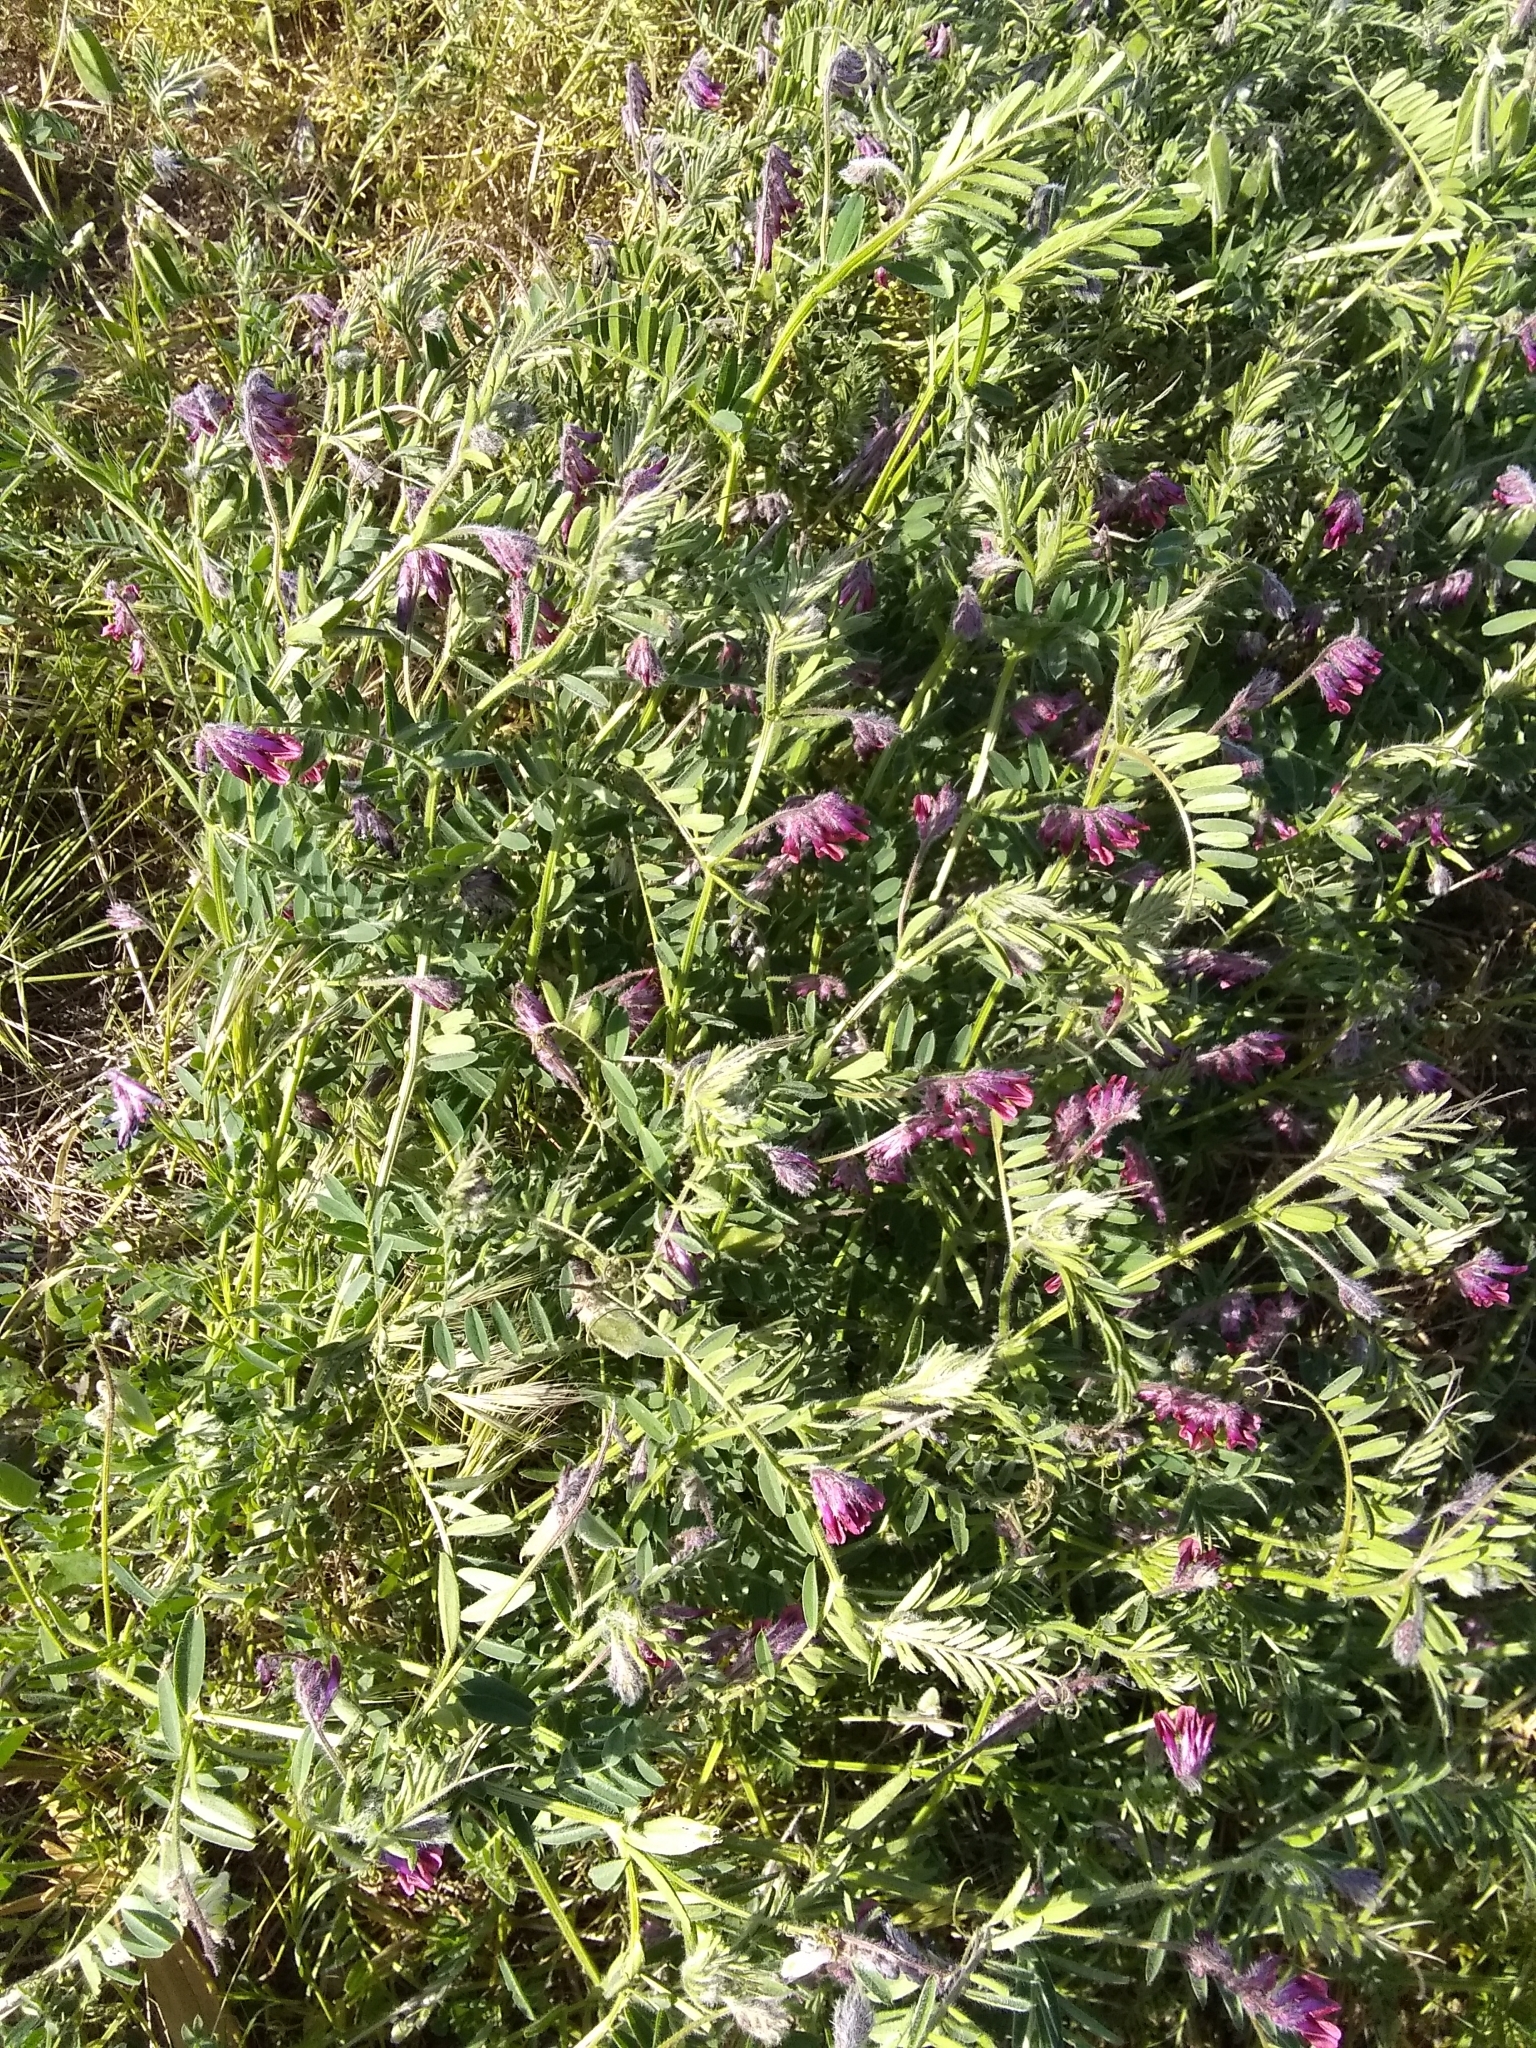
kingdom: Plantae
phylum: Tracheophyta
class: Magnoliopsida
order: Fabales
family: Fabaceae
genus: Vicia
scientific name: Vicia benghalensis
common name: Purple vetch
